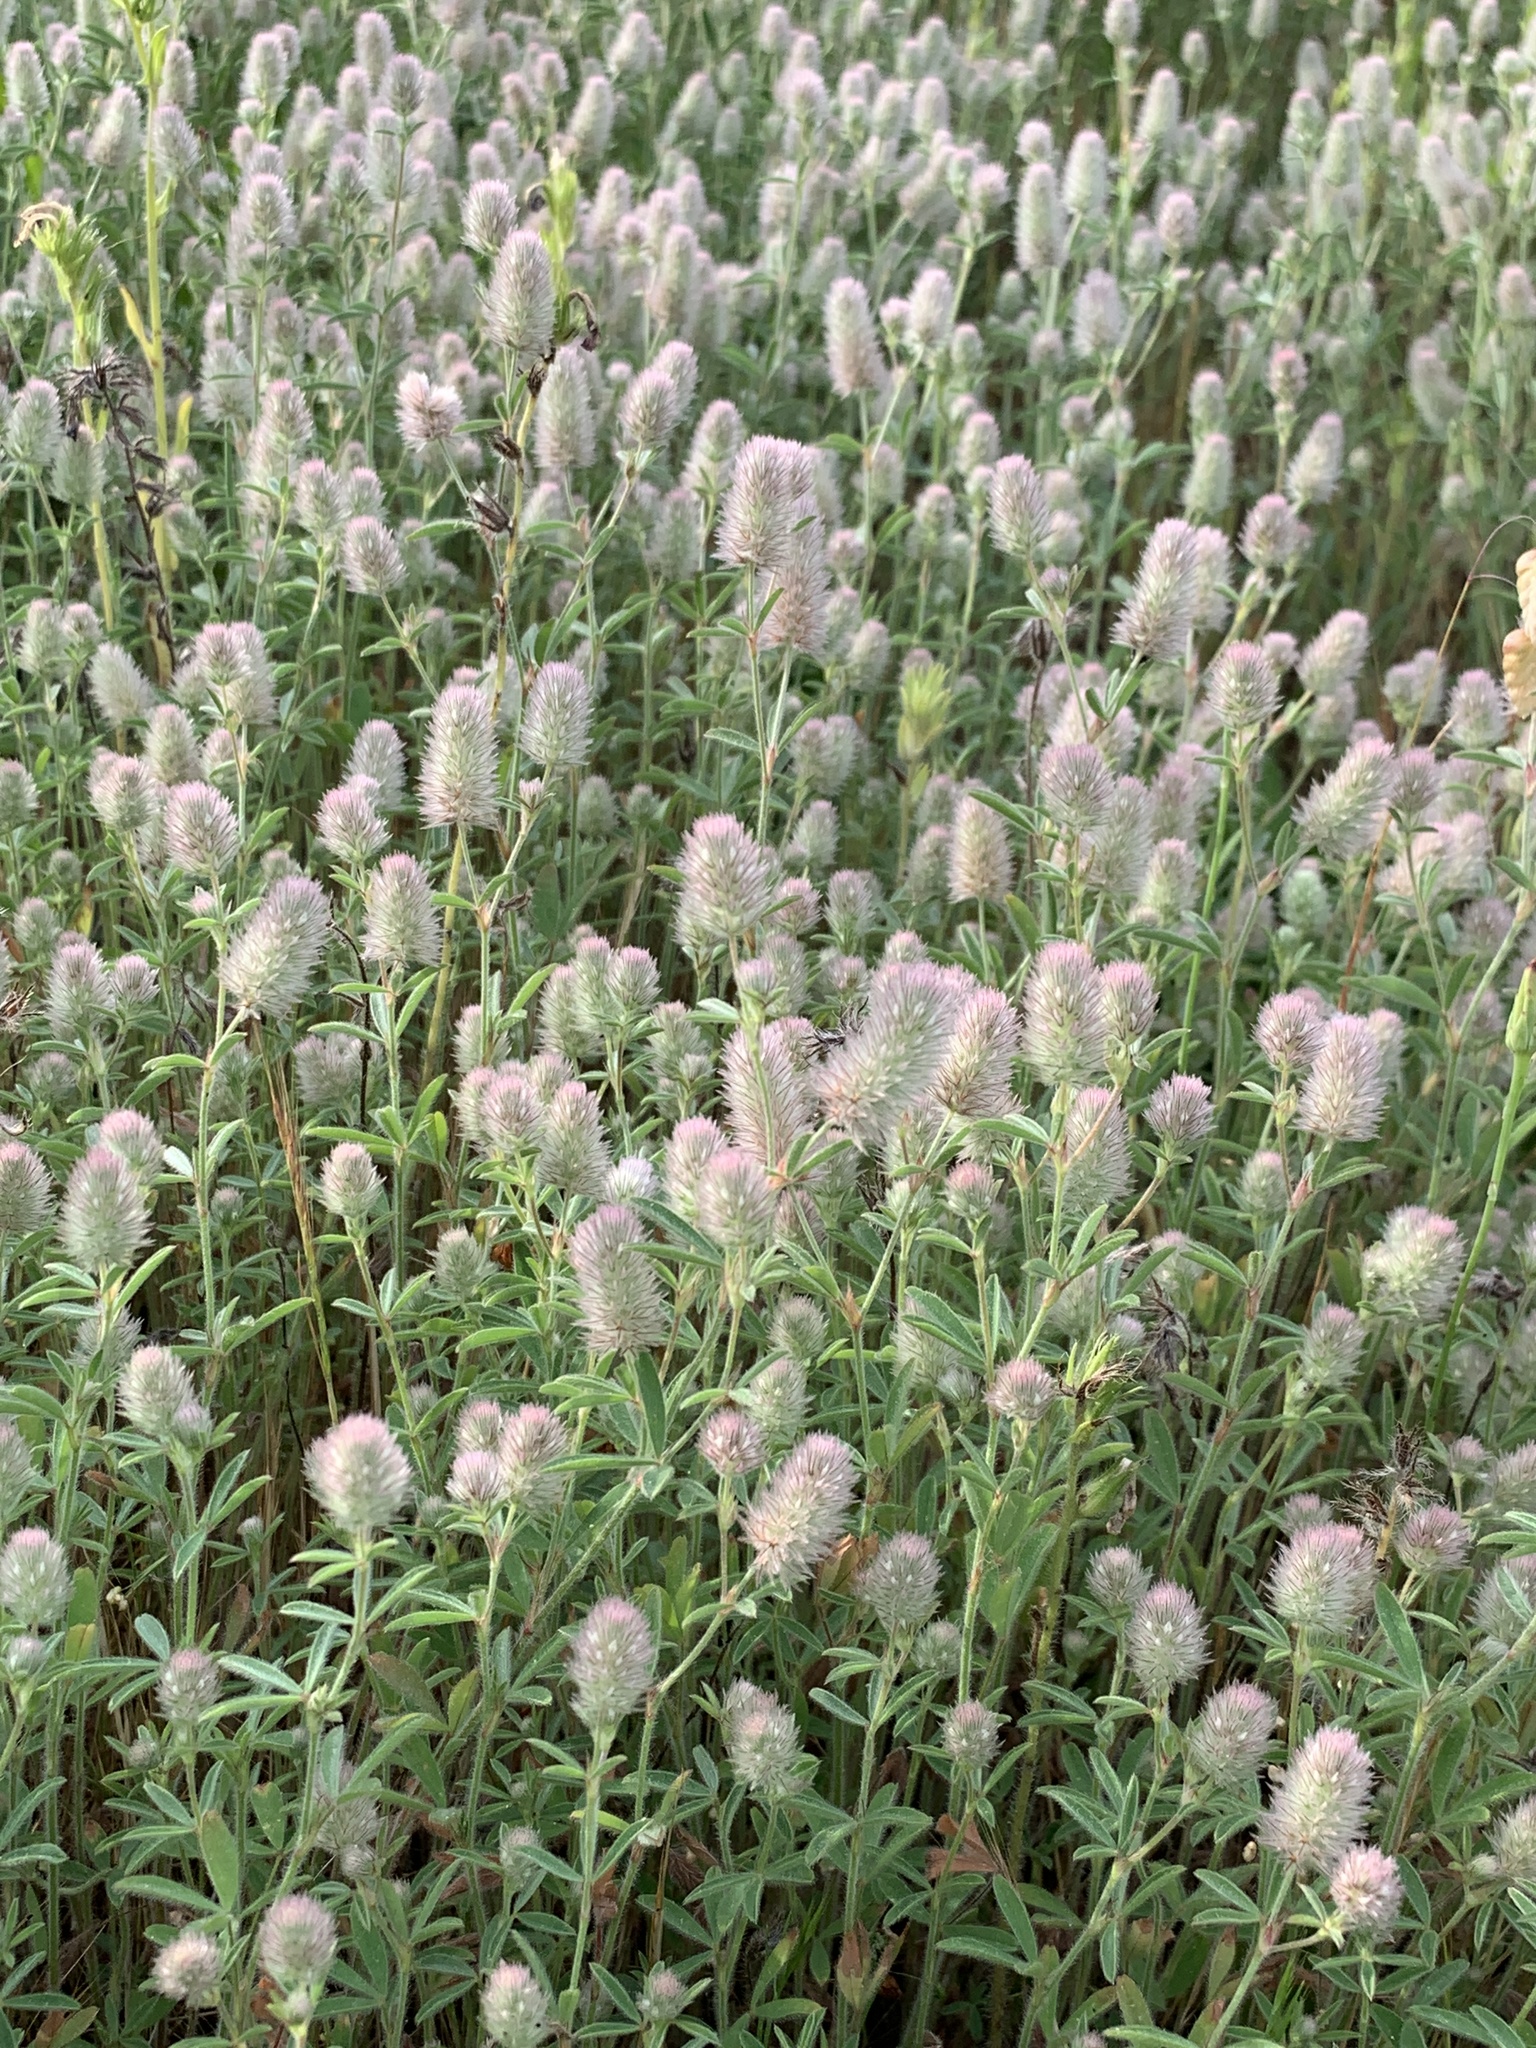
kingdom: Plantae
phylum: Tracheophyta
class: Magnoliopsida
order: Fabales
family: Fabaceae
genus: Trifolium
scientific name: Trifolium arvense
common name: Hare's-foot clover
